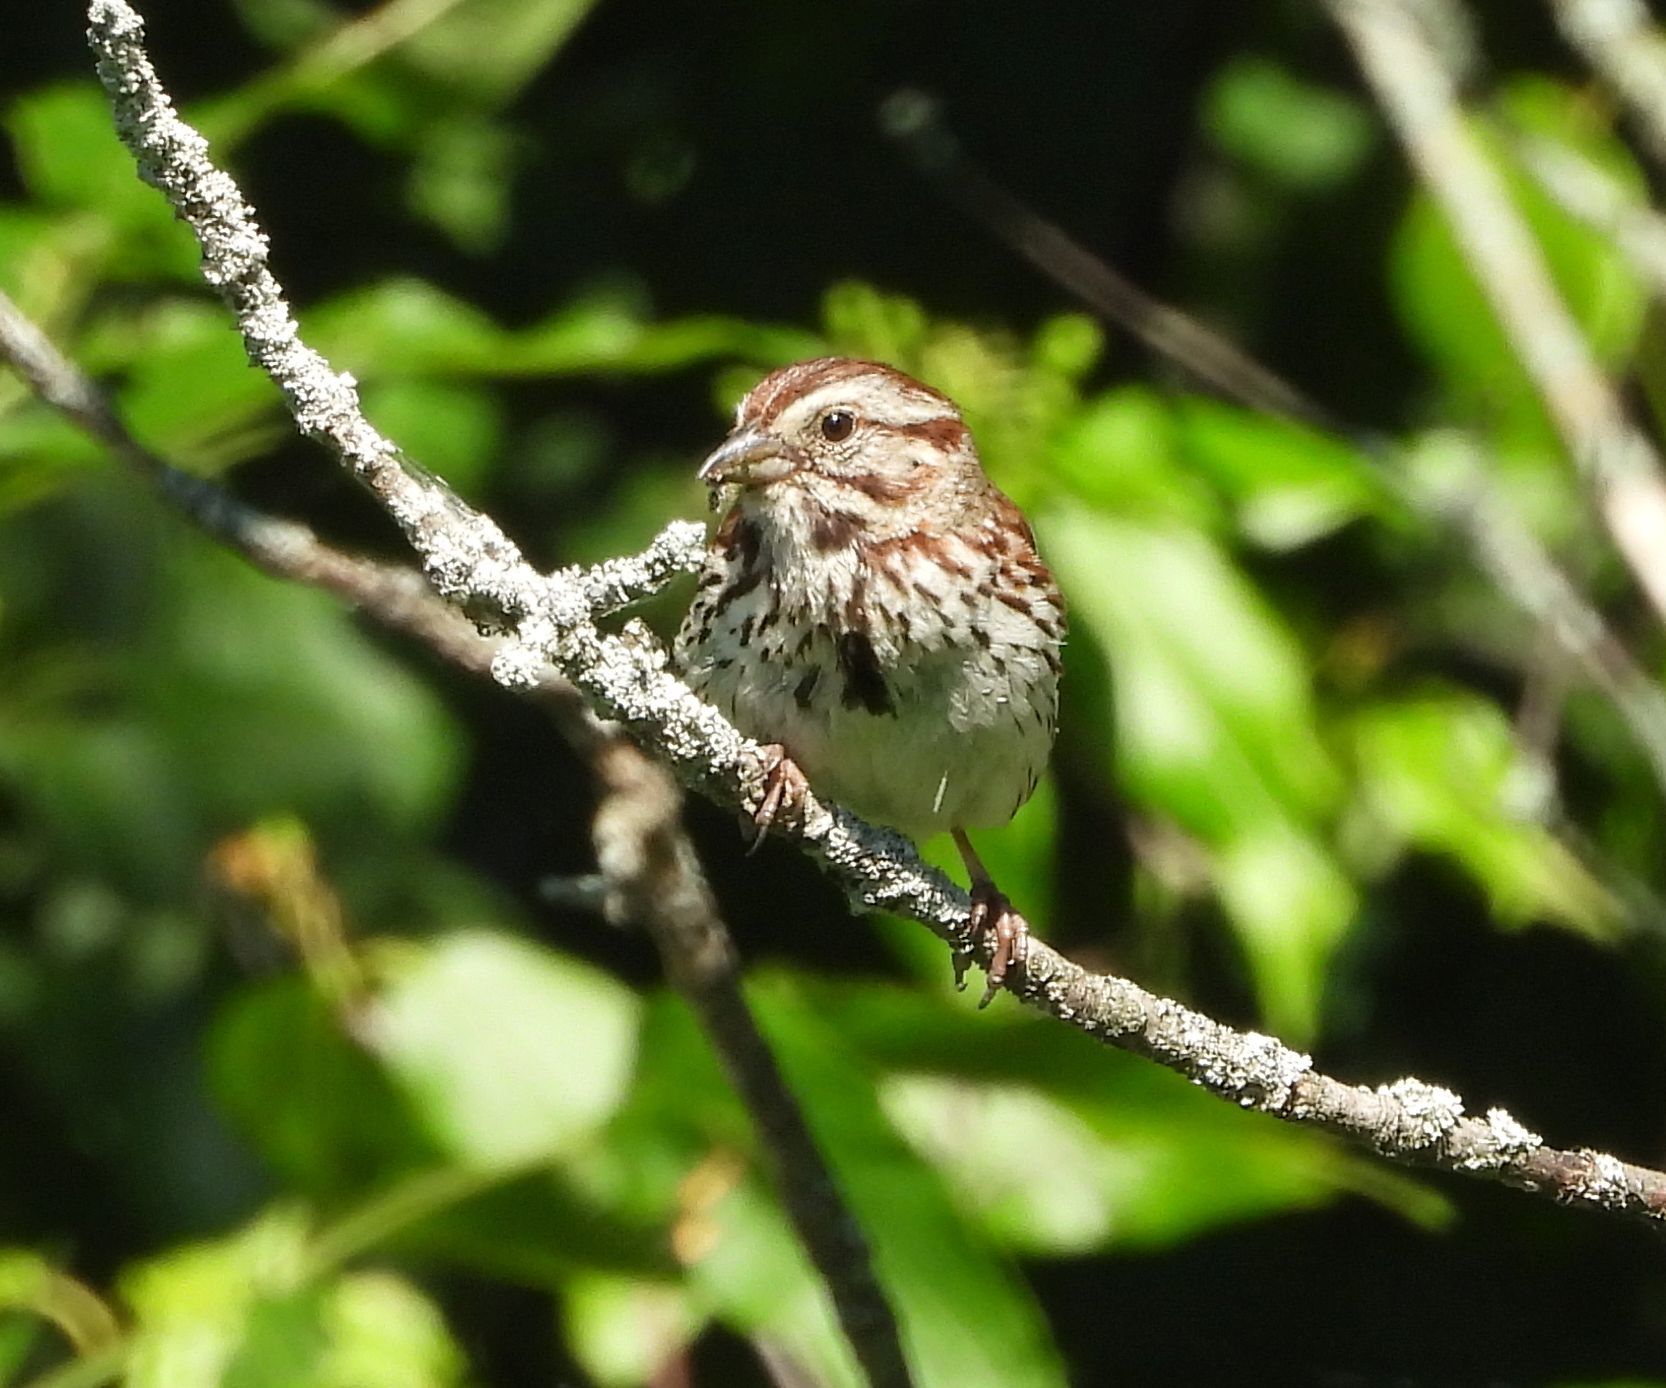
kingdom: Animalia
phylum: Chordata
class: Aves
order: Passeriformes
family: Passerellidae
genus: Melospiza
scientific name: Melospiza melodia
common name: Song sparrow
